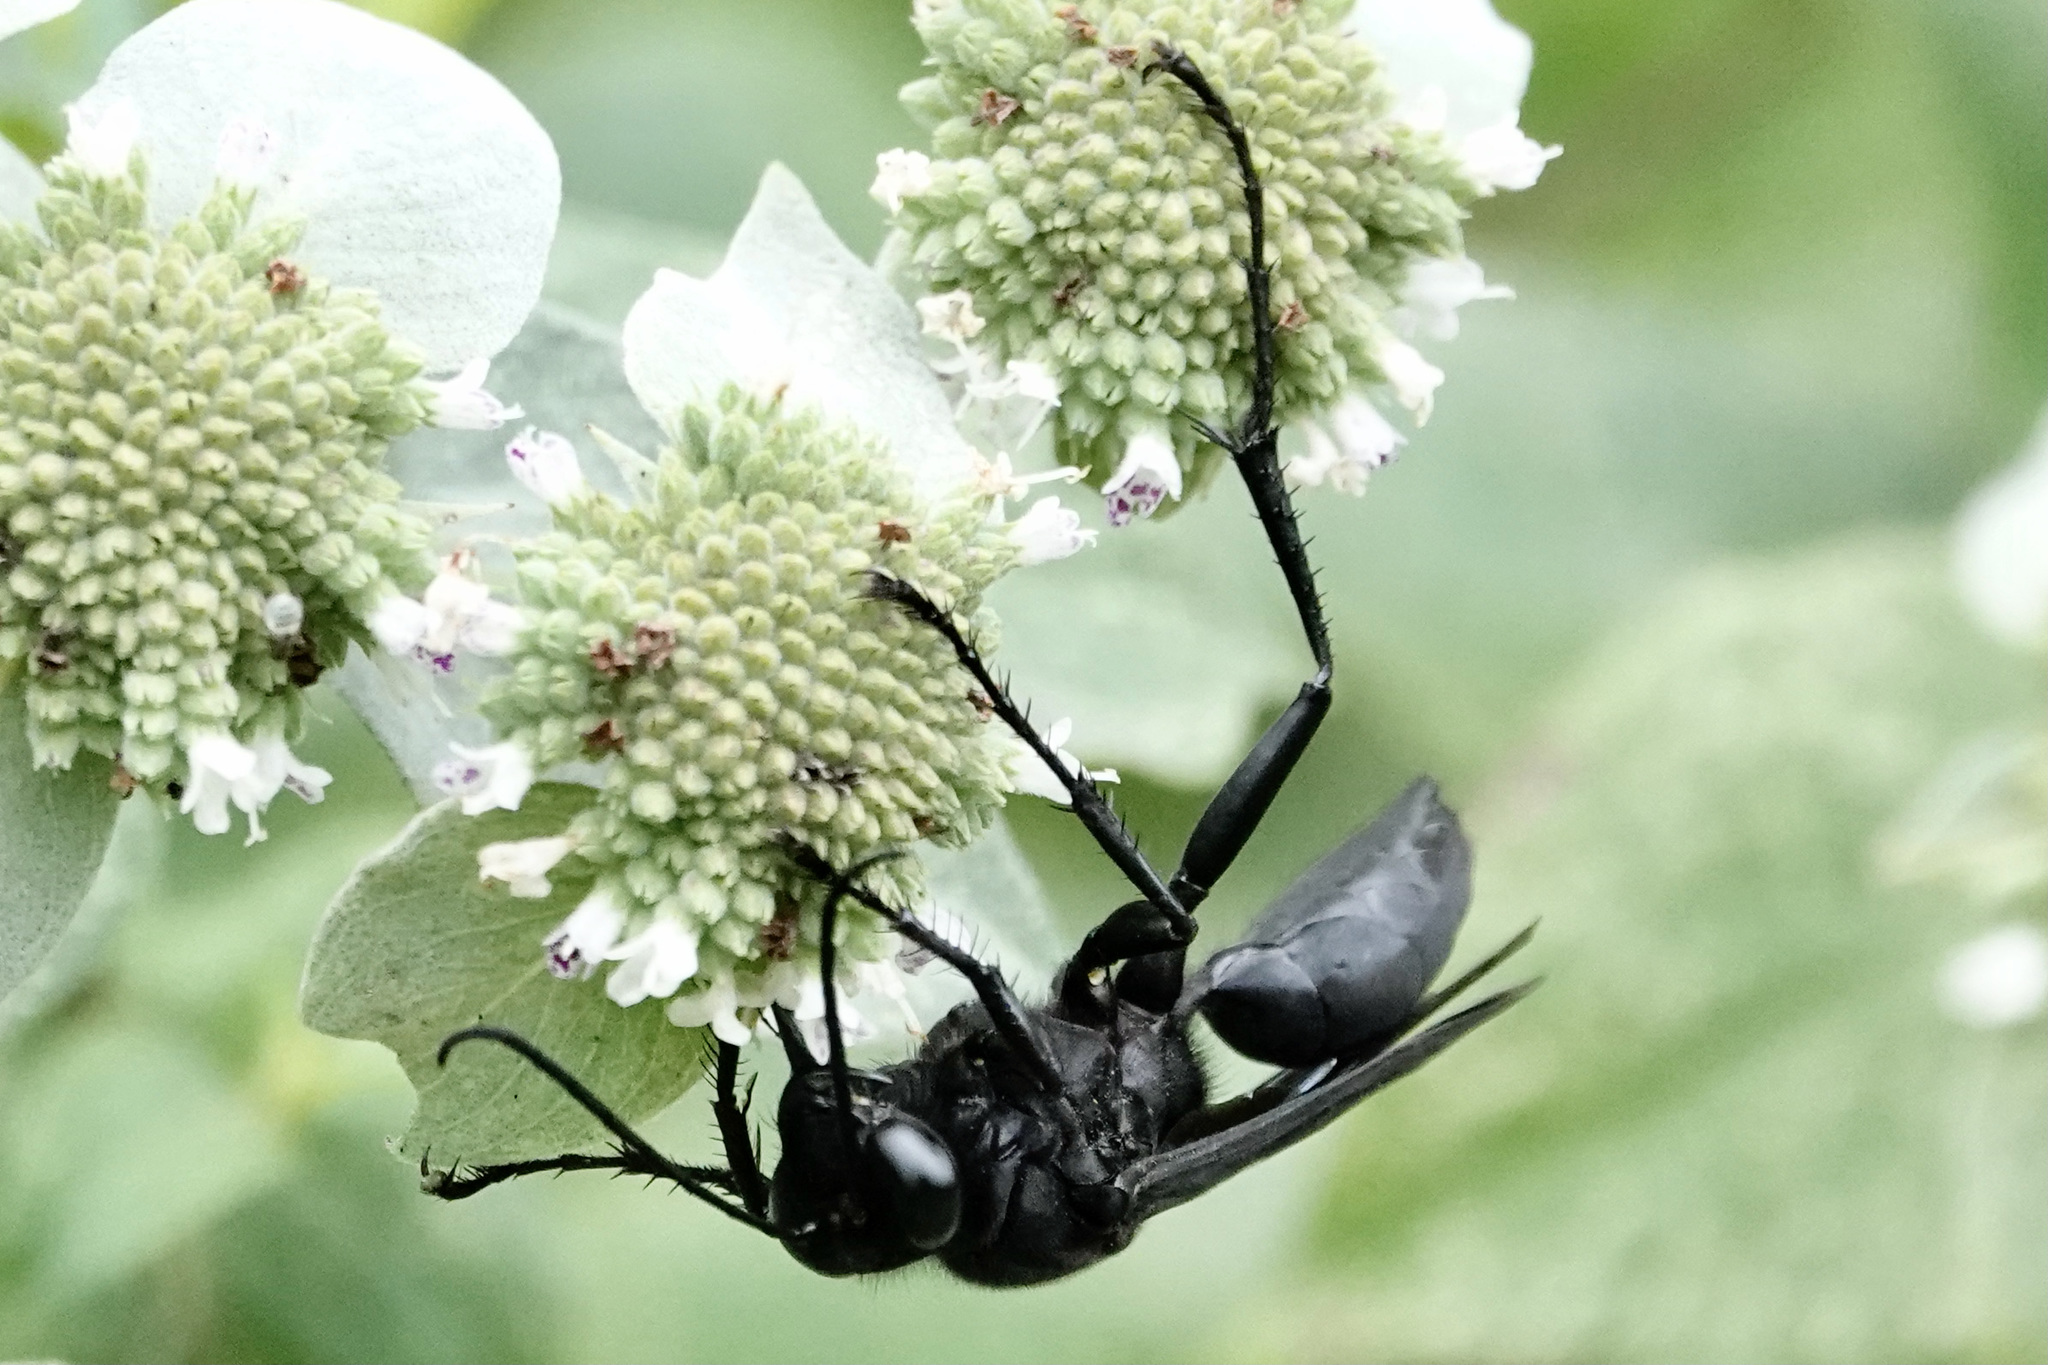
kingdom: Animalia
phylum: Arthropoda
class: Insecta
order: Hymenoptera
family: Sphecidae
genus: Sphex
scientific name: Sphex pensylvanicus
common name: Great black digger wasp
